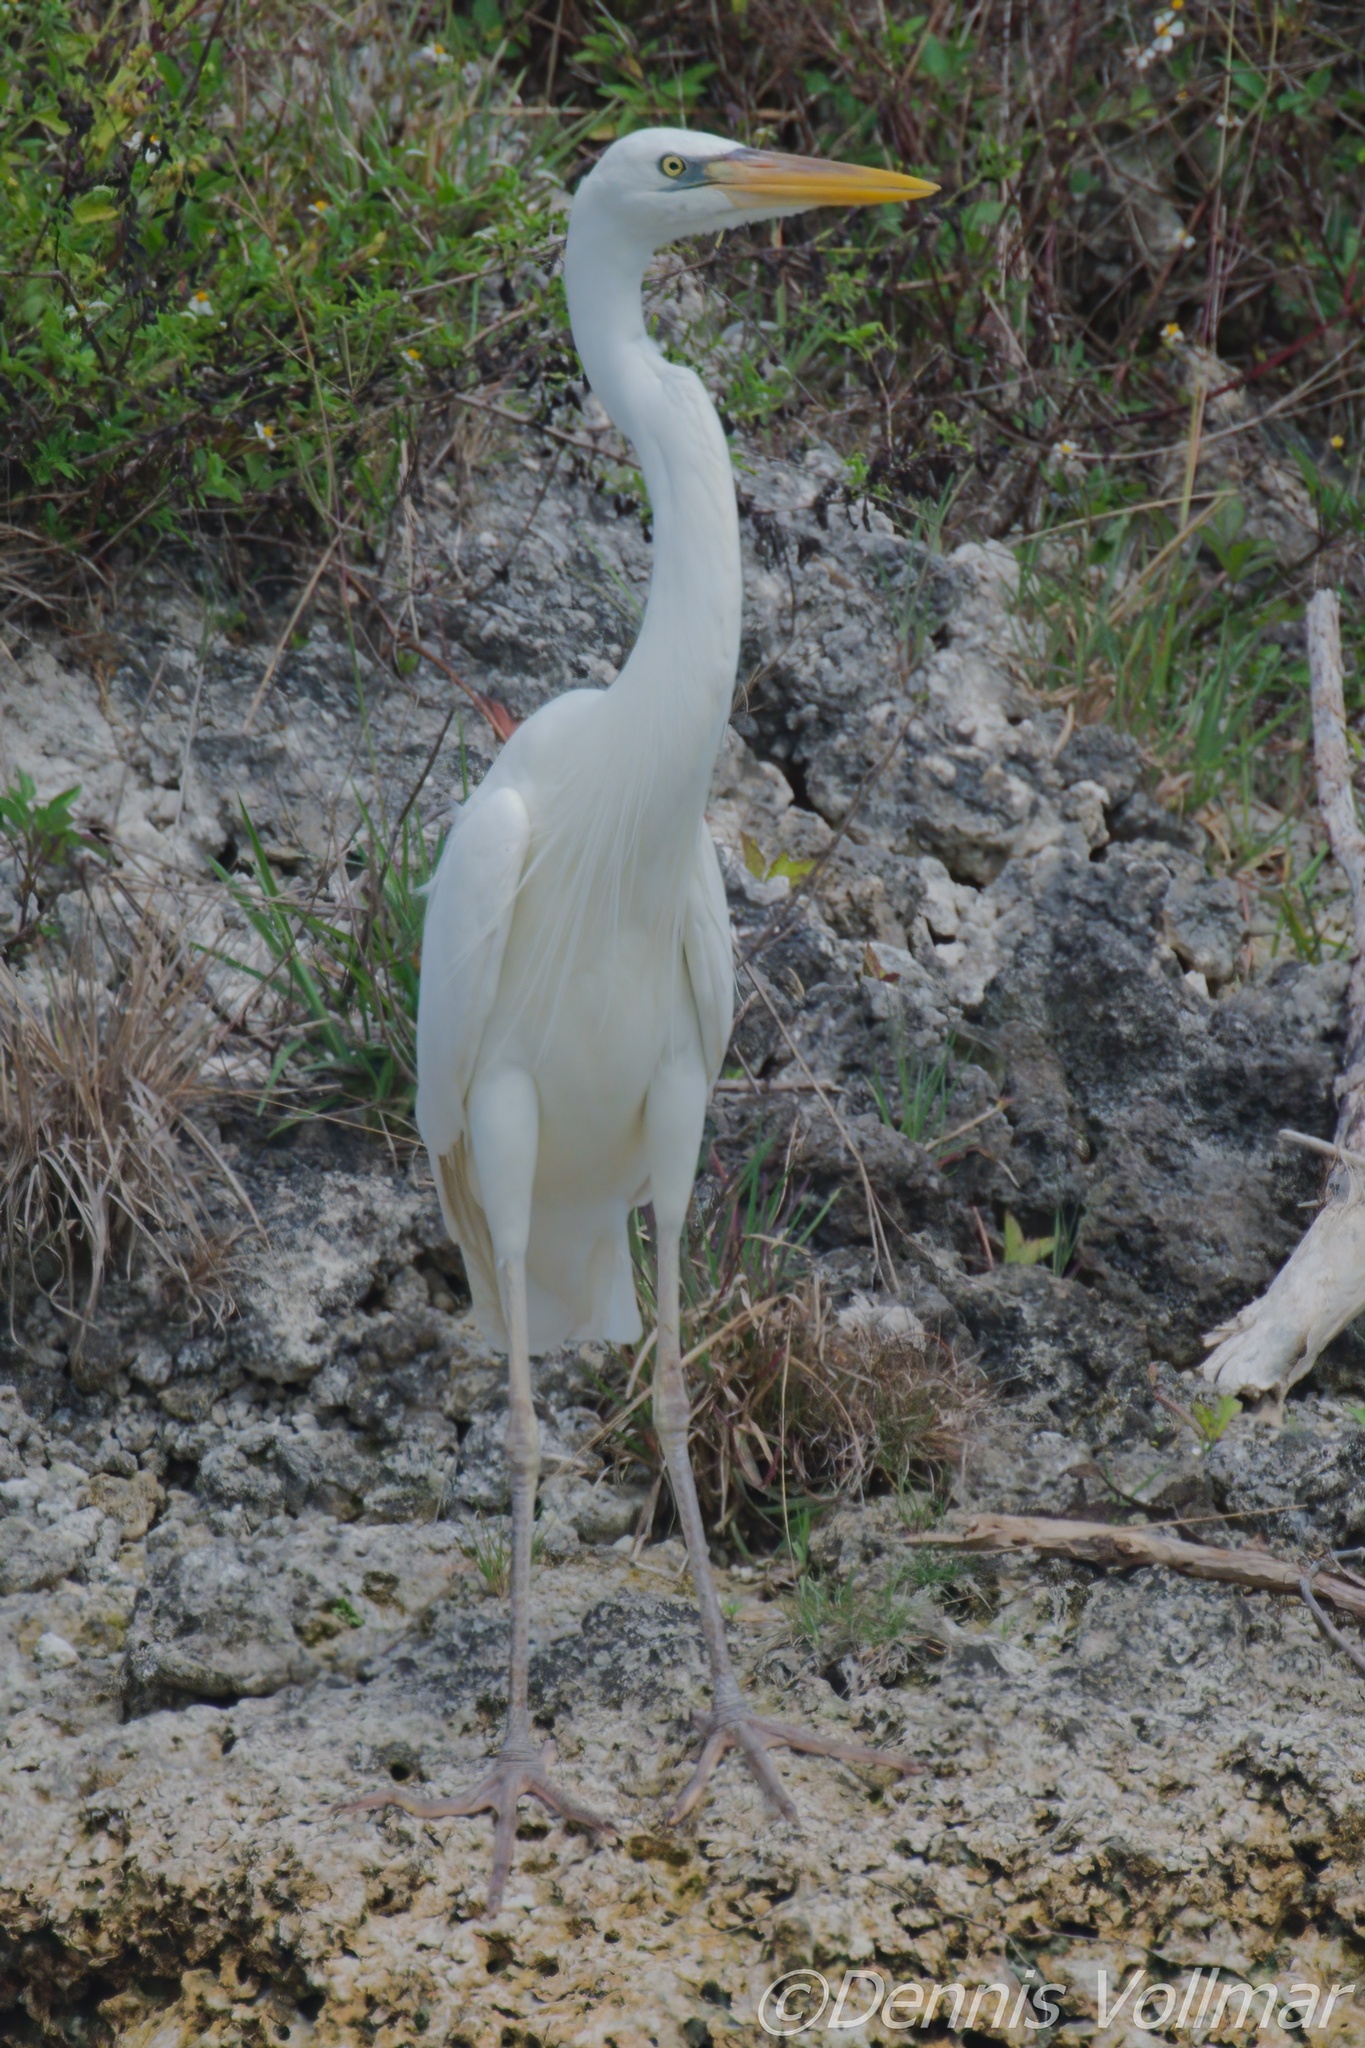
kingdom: Animalia
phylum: Chordata
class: Aves
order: Pelecaniformes
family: Ardeidae
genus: Ardea
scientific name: Ardea herodias
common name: Great blue heron
